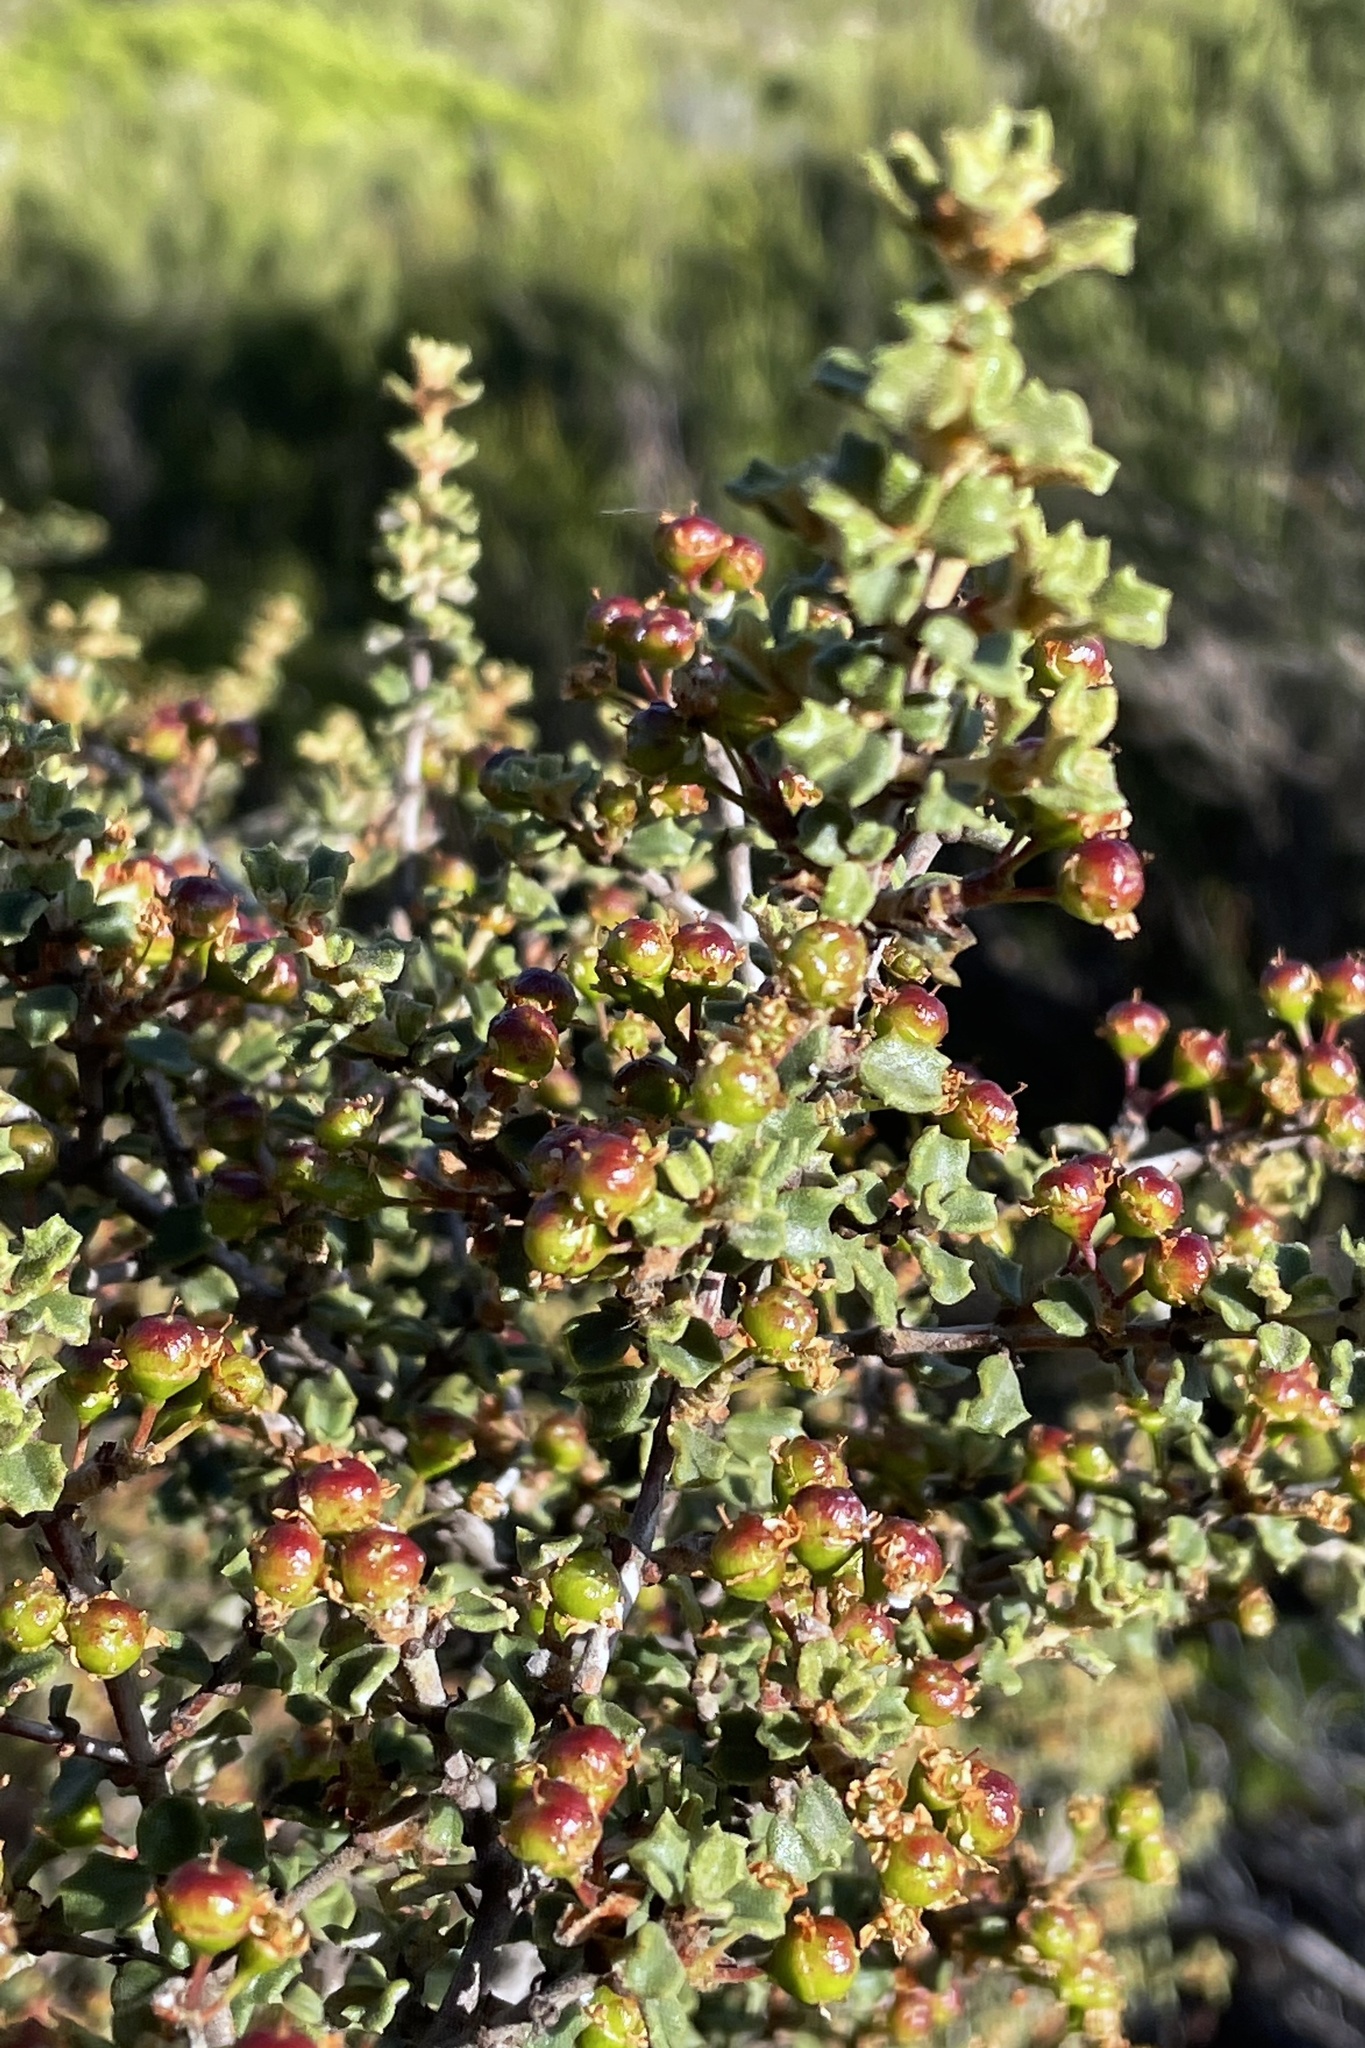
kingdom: Plantae
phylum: Tracheophyta
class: Magnoliopsida
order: Rosales
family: Rhamnaceae
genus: Ceanothus
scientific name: Ceanothus otayensis
